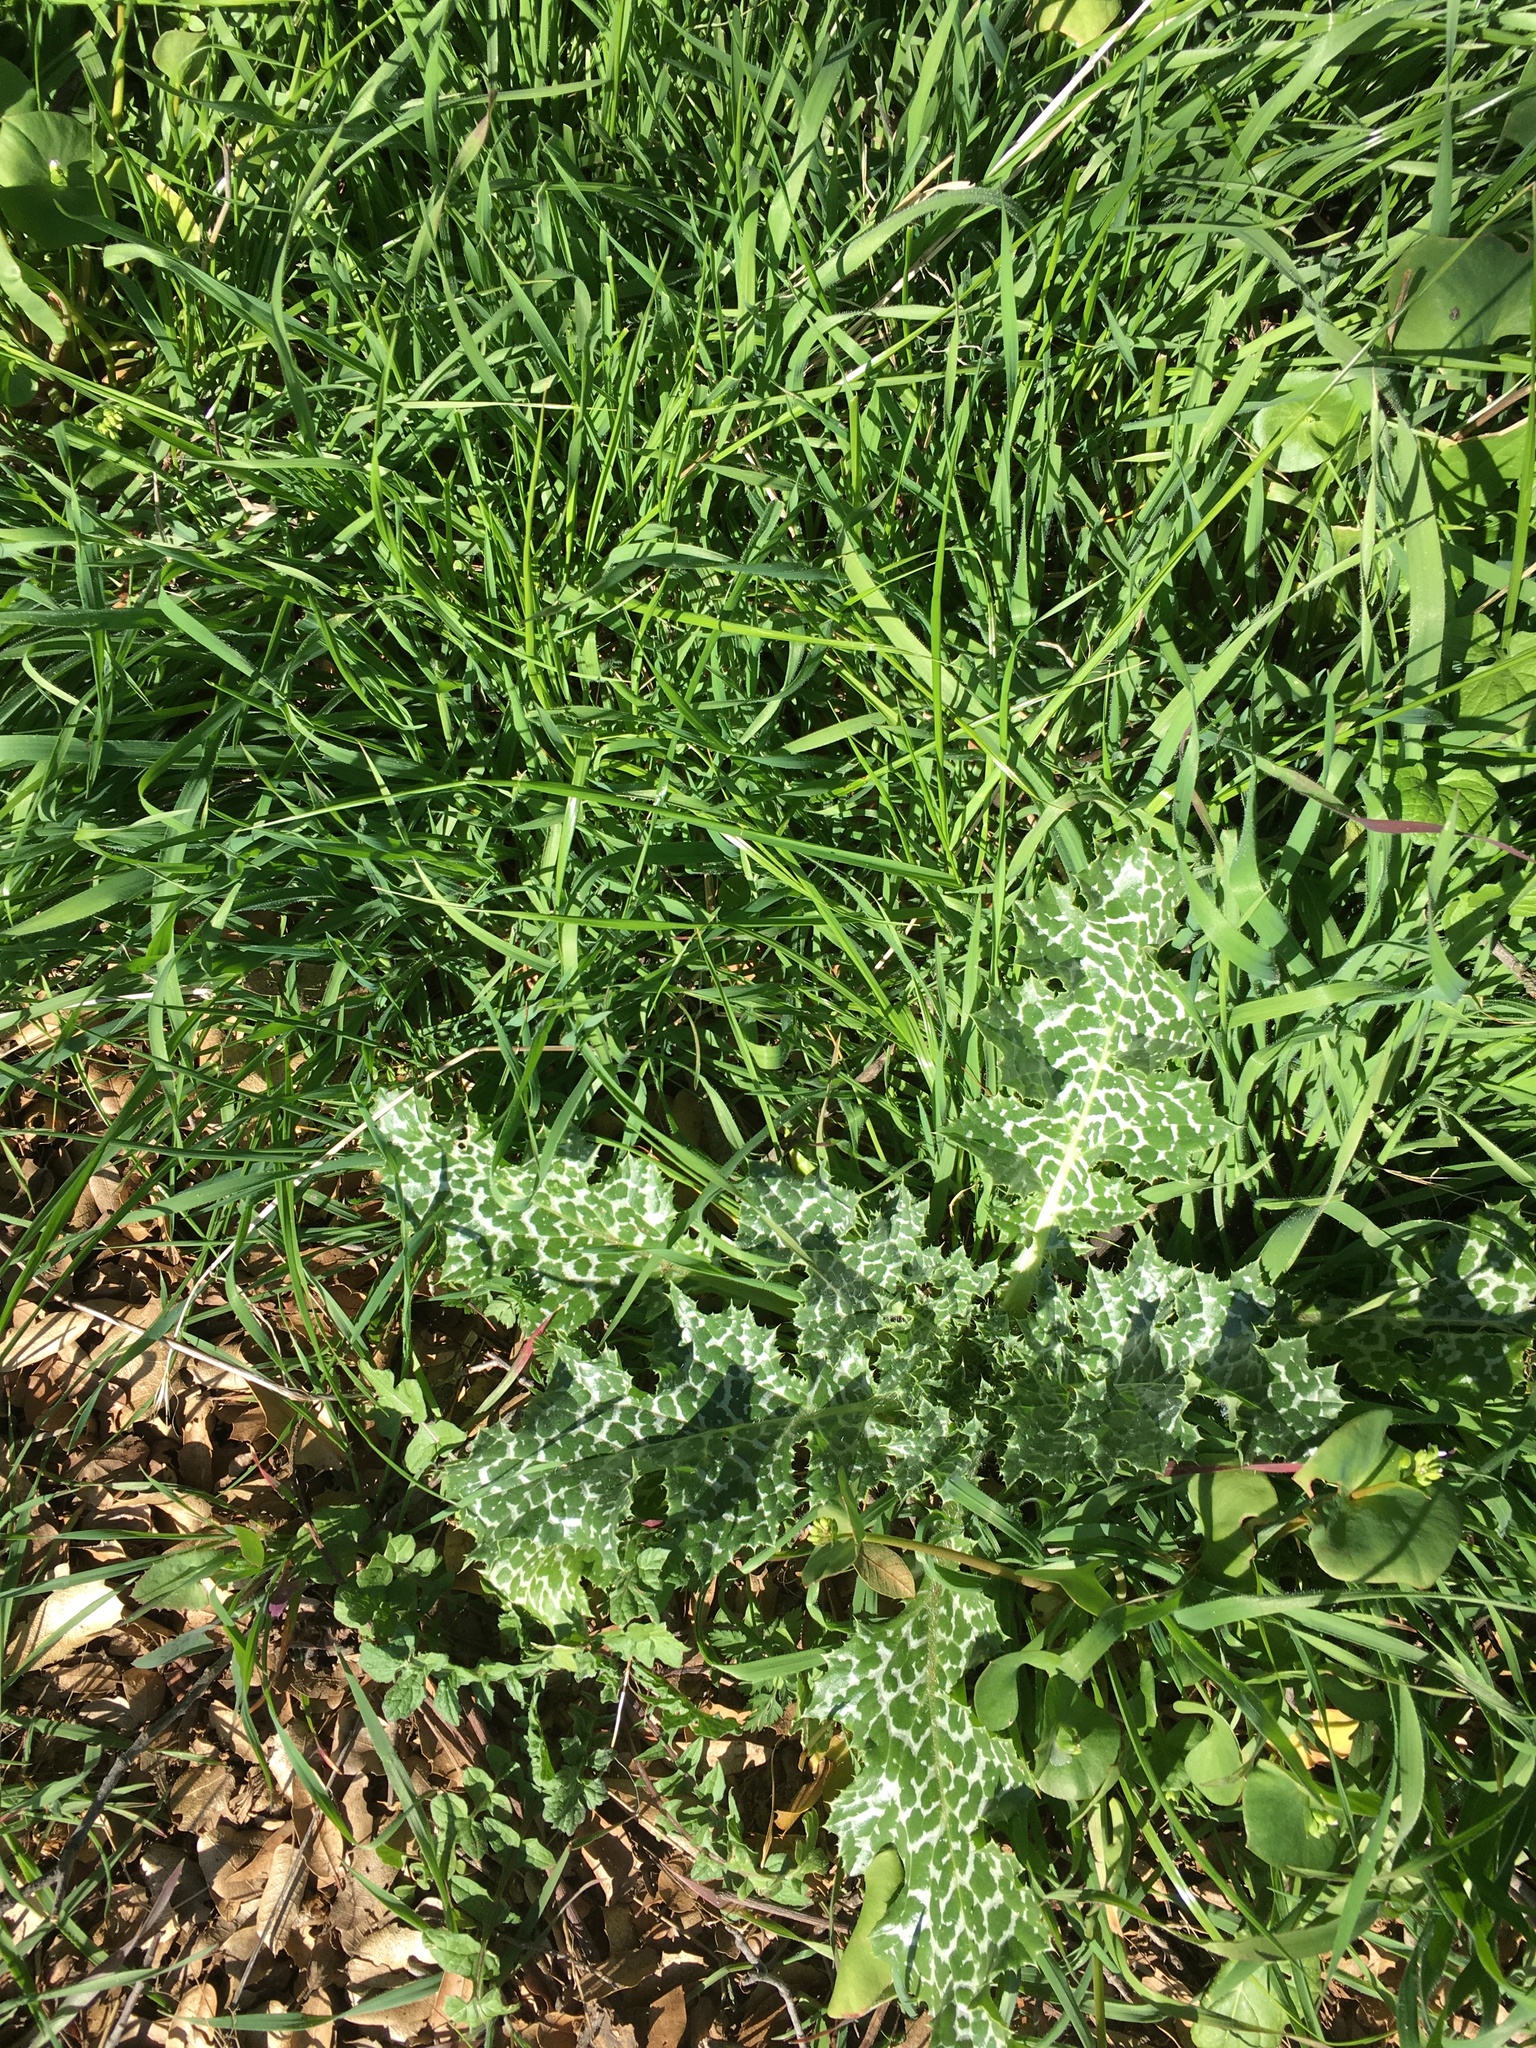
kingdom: Plantae
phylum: Tracheophyta
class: Magnoliopsida
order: Asterales
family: Asteraceae
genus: Silybum
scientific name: Silybum marianum
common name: Milk thistle
